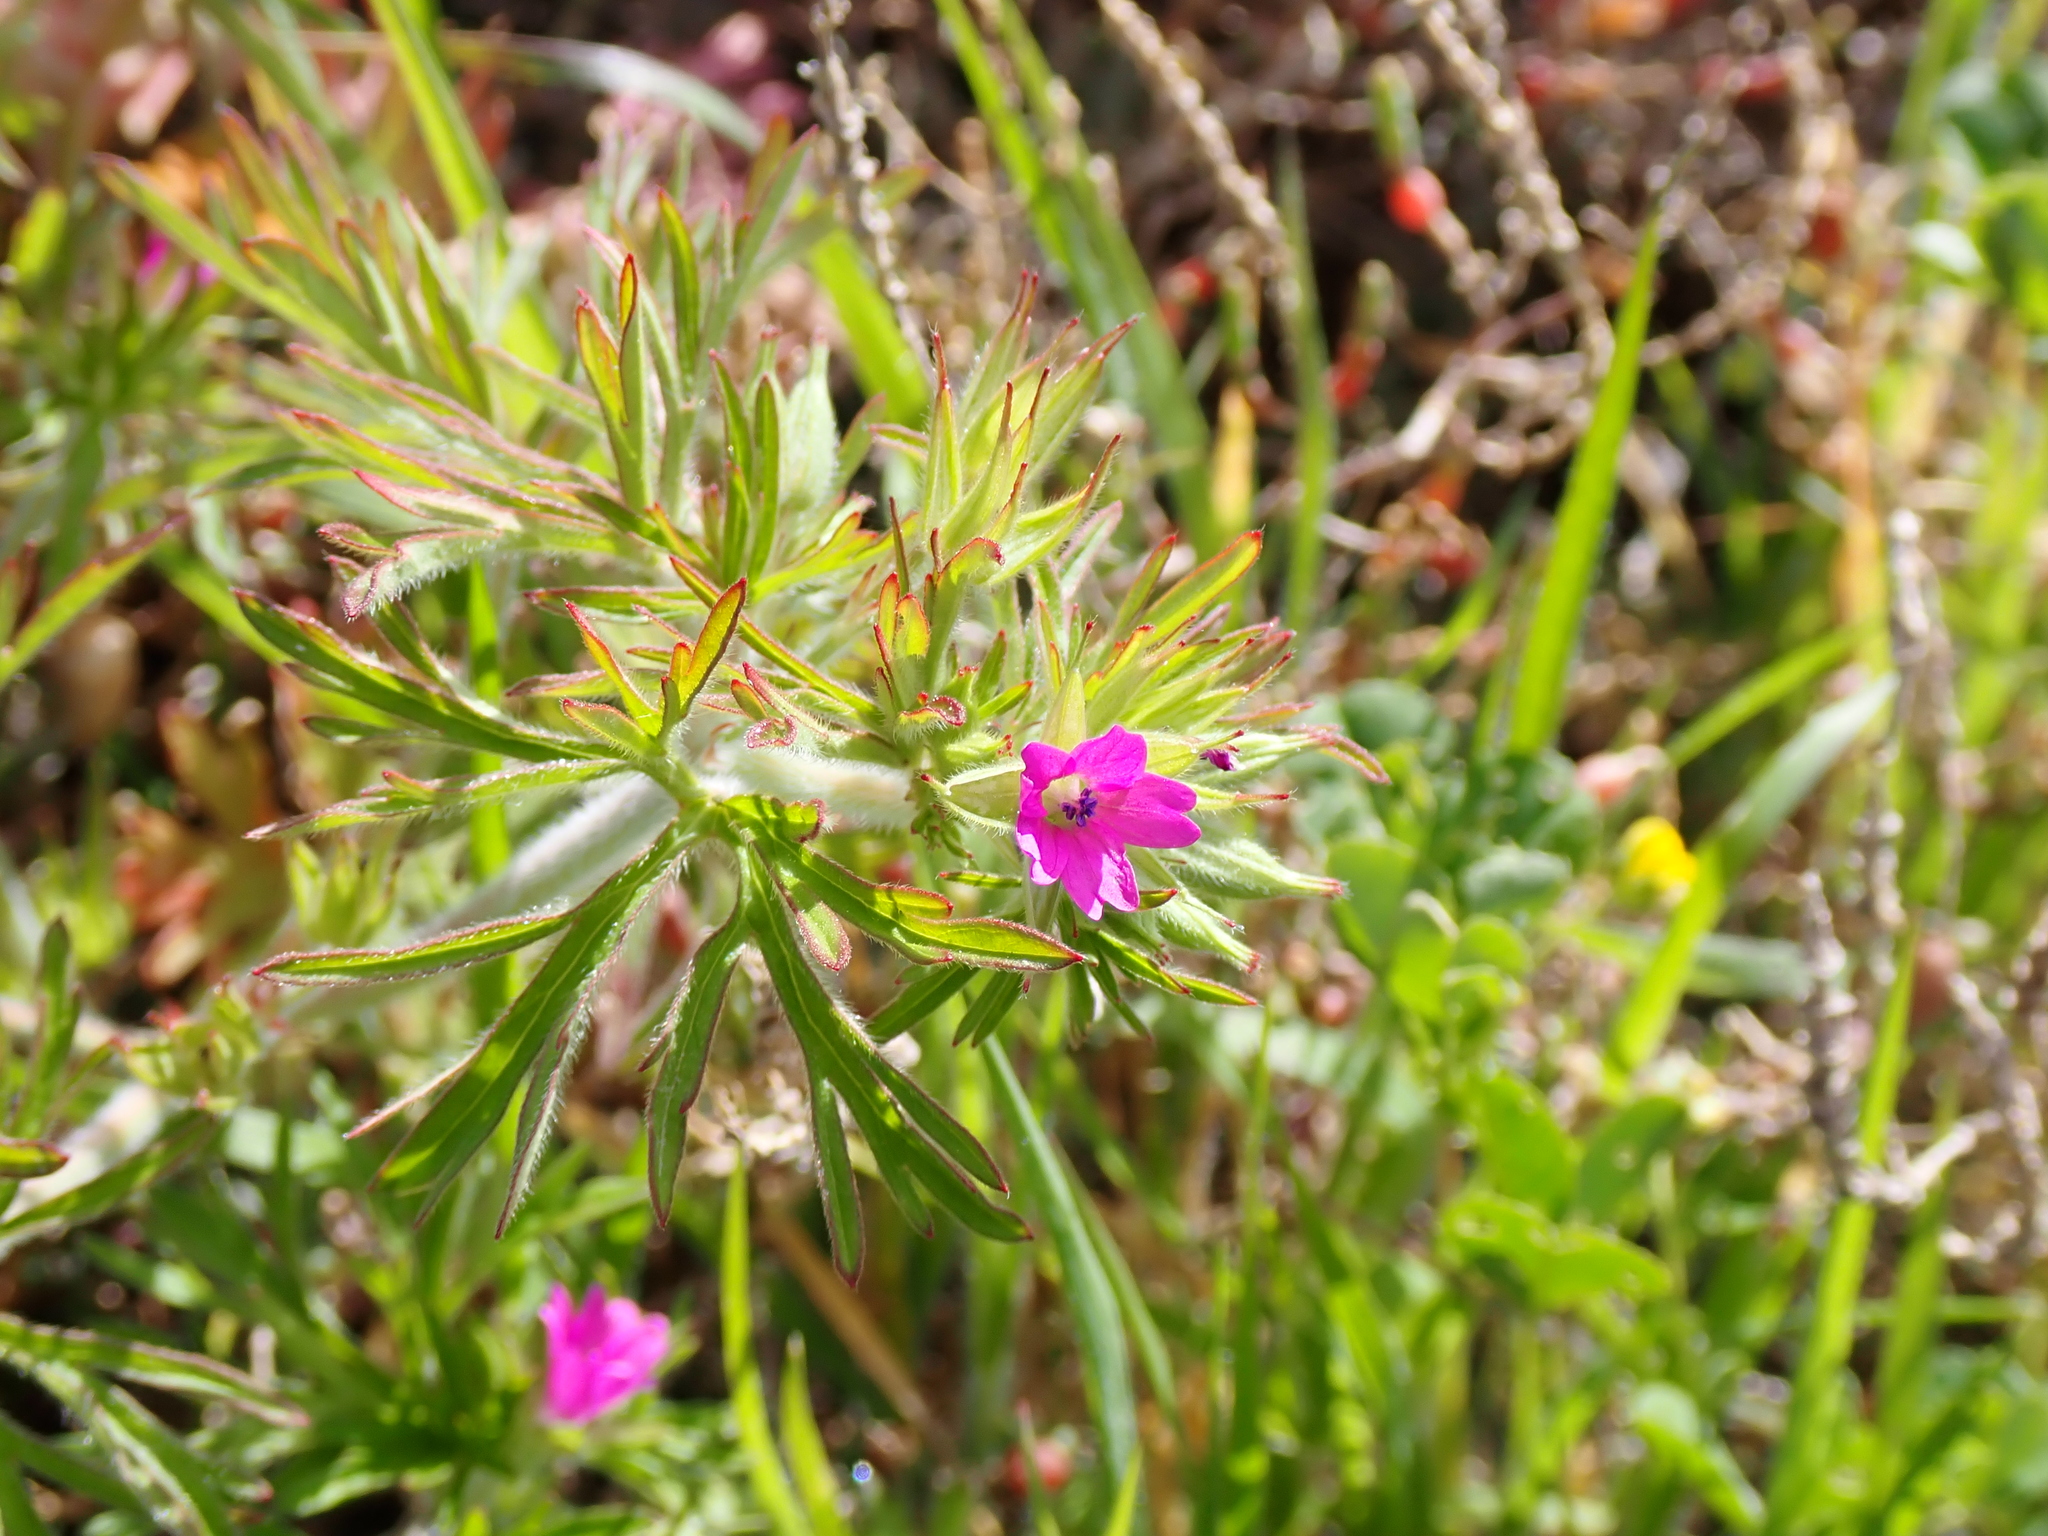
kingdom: Plantae
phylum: Tracheophyta
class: Magnoliopsida
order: Geraniales
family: Geraniaceae
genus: Geranium
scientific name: Geranium dissectum
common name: Cut-leaved crane's-bill
